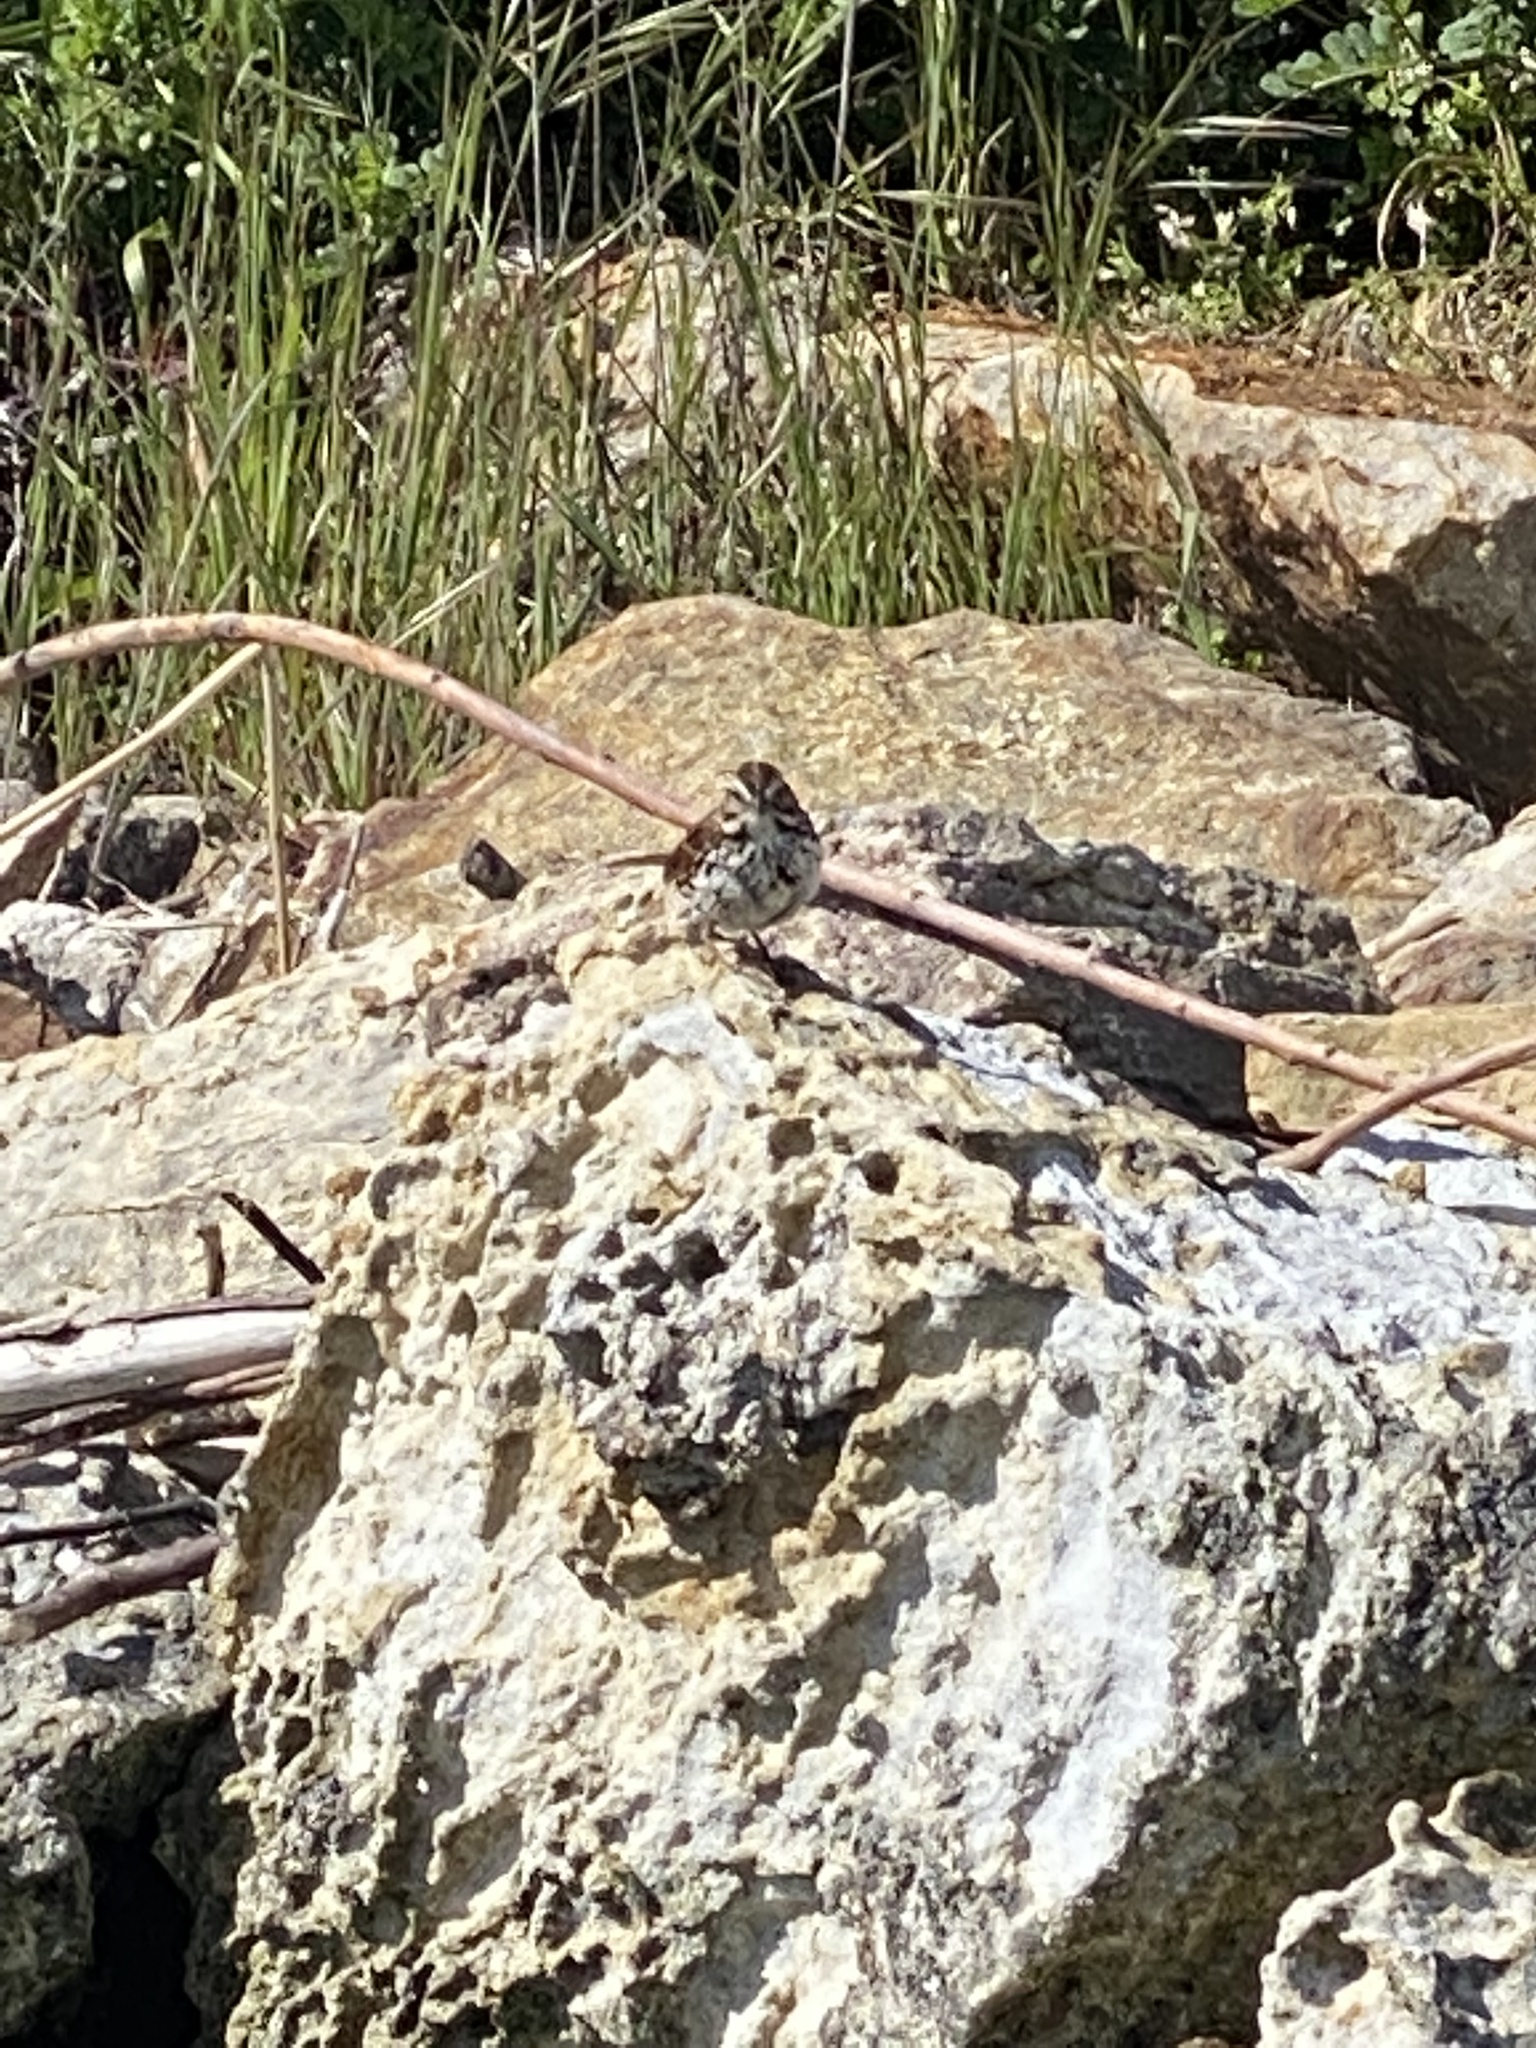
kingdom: Animalia
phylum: Chordata
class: Aves
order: Passeriformes
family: Passerellidae
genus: Melospiza
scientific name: Melospiza melodia
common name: Song sparrow
